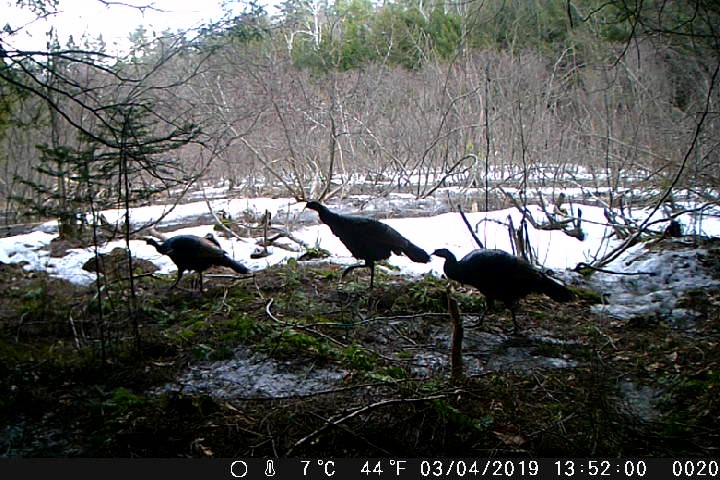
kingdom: Animalia
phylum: Chordata
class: Aves
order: Galliformes
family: Phasianidae
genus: Meleagris
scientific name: Meleagris gallopavo
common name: Wild turkey
